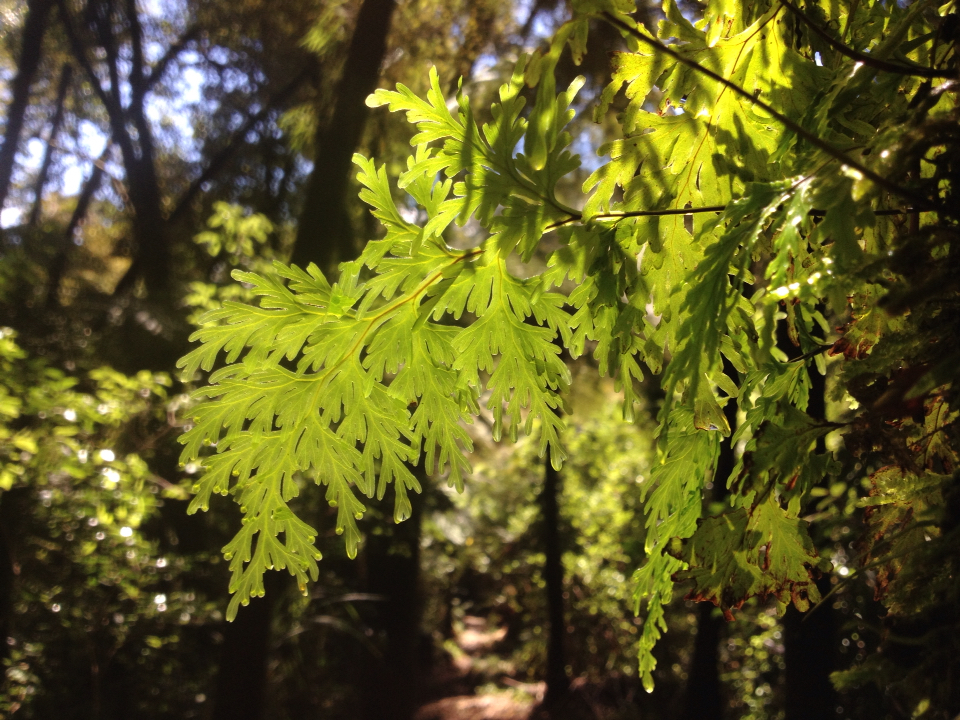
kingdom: Plantae
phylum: Tracheophyta
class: Polypodiopsida
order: Hymenophyllales
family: Hymenophyllaceae
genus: Hymenophyllum
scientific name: Hymenophyllum dilatatum
